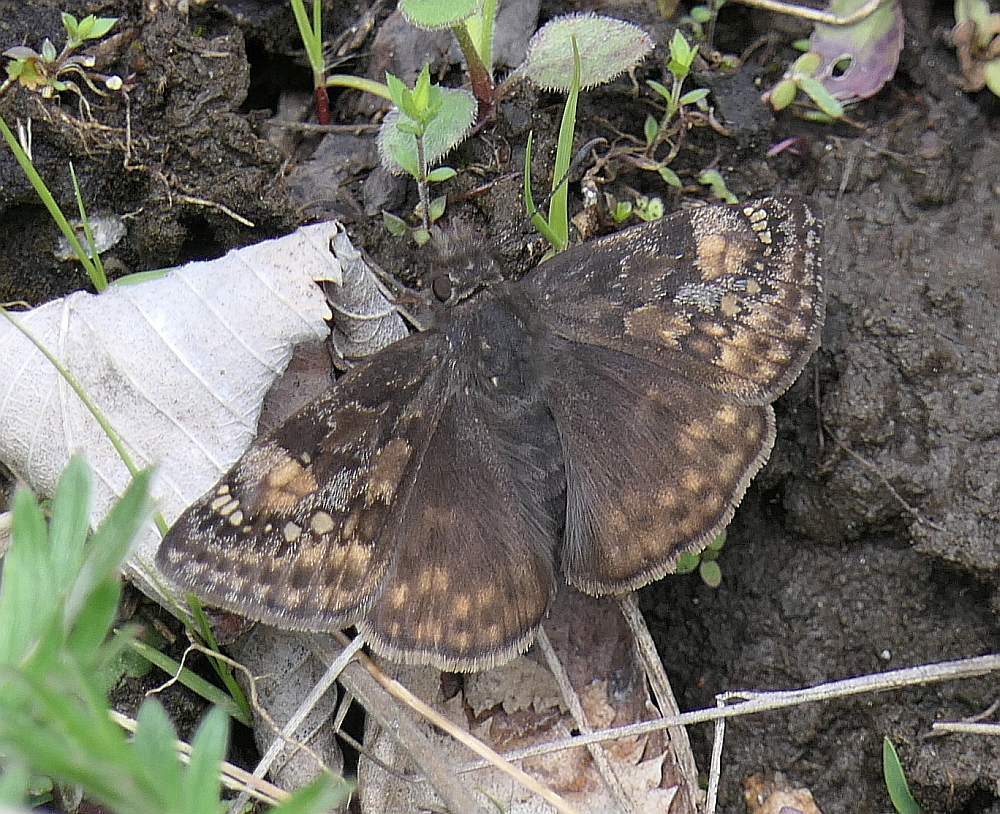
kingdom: Animalia
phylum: Arthropoda
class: Insecta
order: Lepidoptera
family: Hesperiidae
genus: Erynnis
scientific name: Erynnis juvenalis
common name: Juvenal's duskywing
